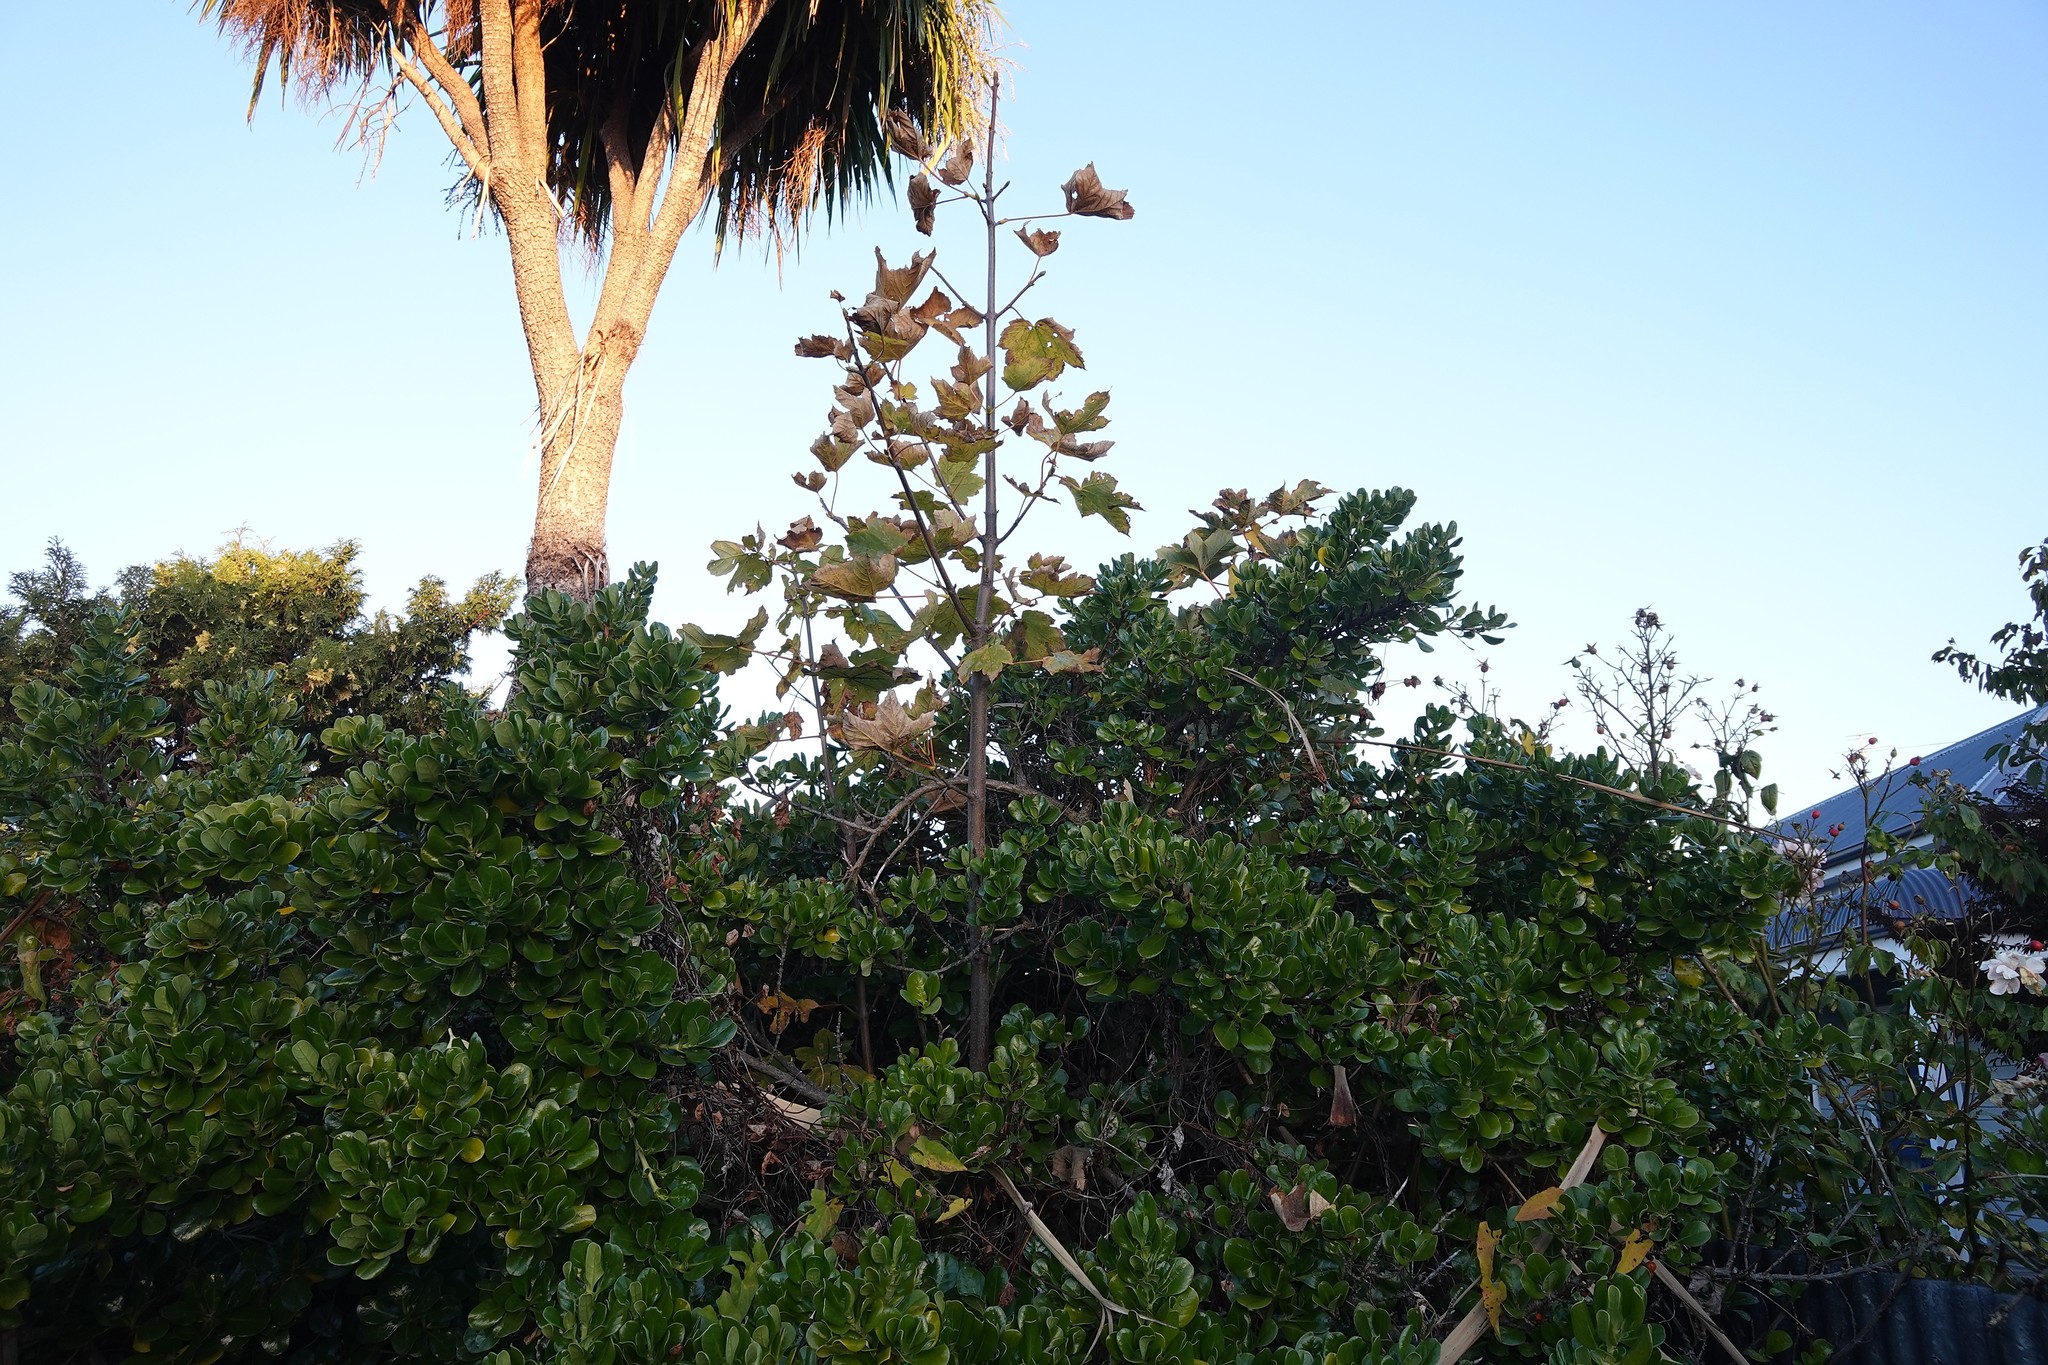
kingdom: Plantae
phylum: Tracheophyta
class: Magnoliopsida
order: Sapindales
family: Sapindaceae
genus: Acer
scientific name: Acer pseudoplatanus
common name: Sycamore
